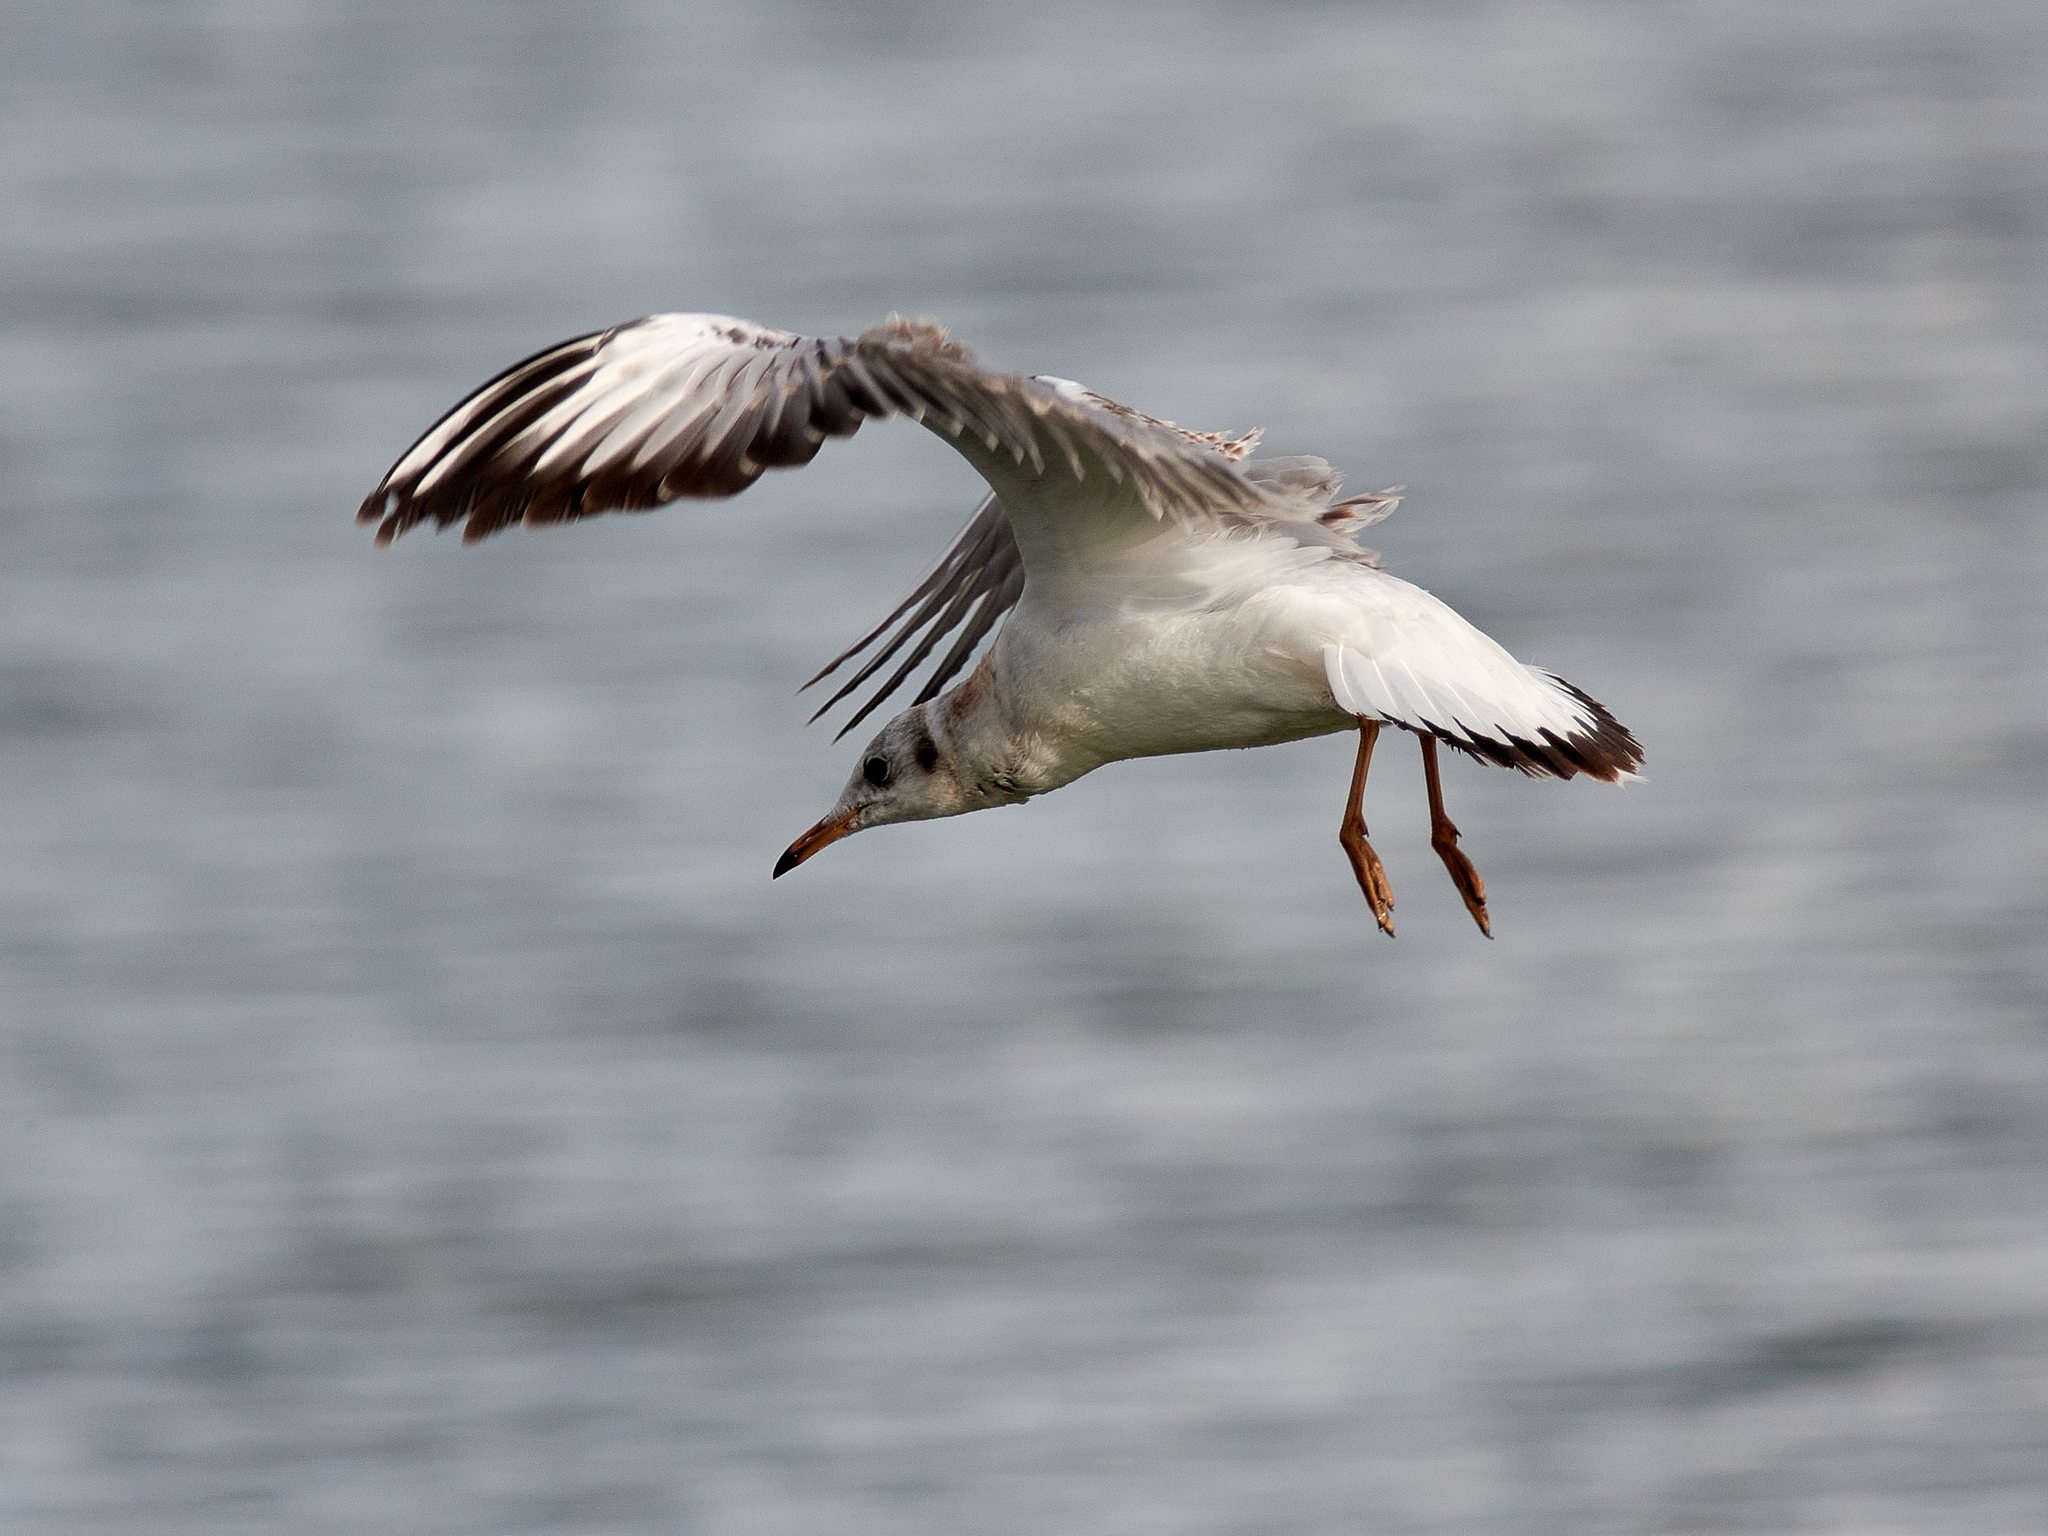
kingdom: Animalia
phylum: Chordata
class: Aves
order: Charadriiformes
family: Laridae
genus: Chroicocephalus
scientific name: Chroicocephalus ridibundus
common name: Black-headed gull
